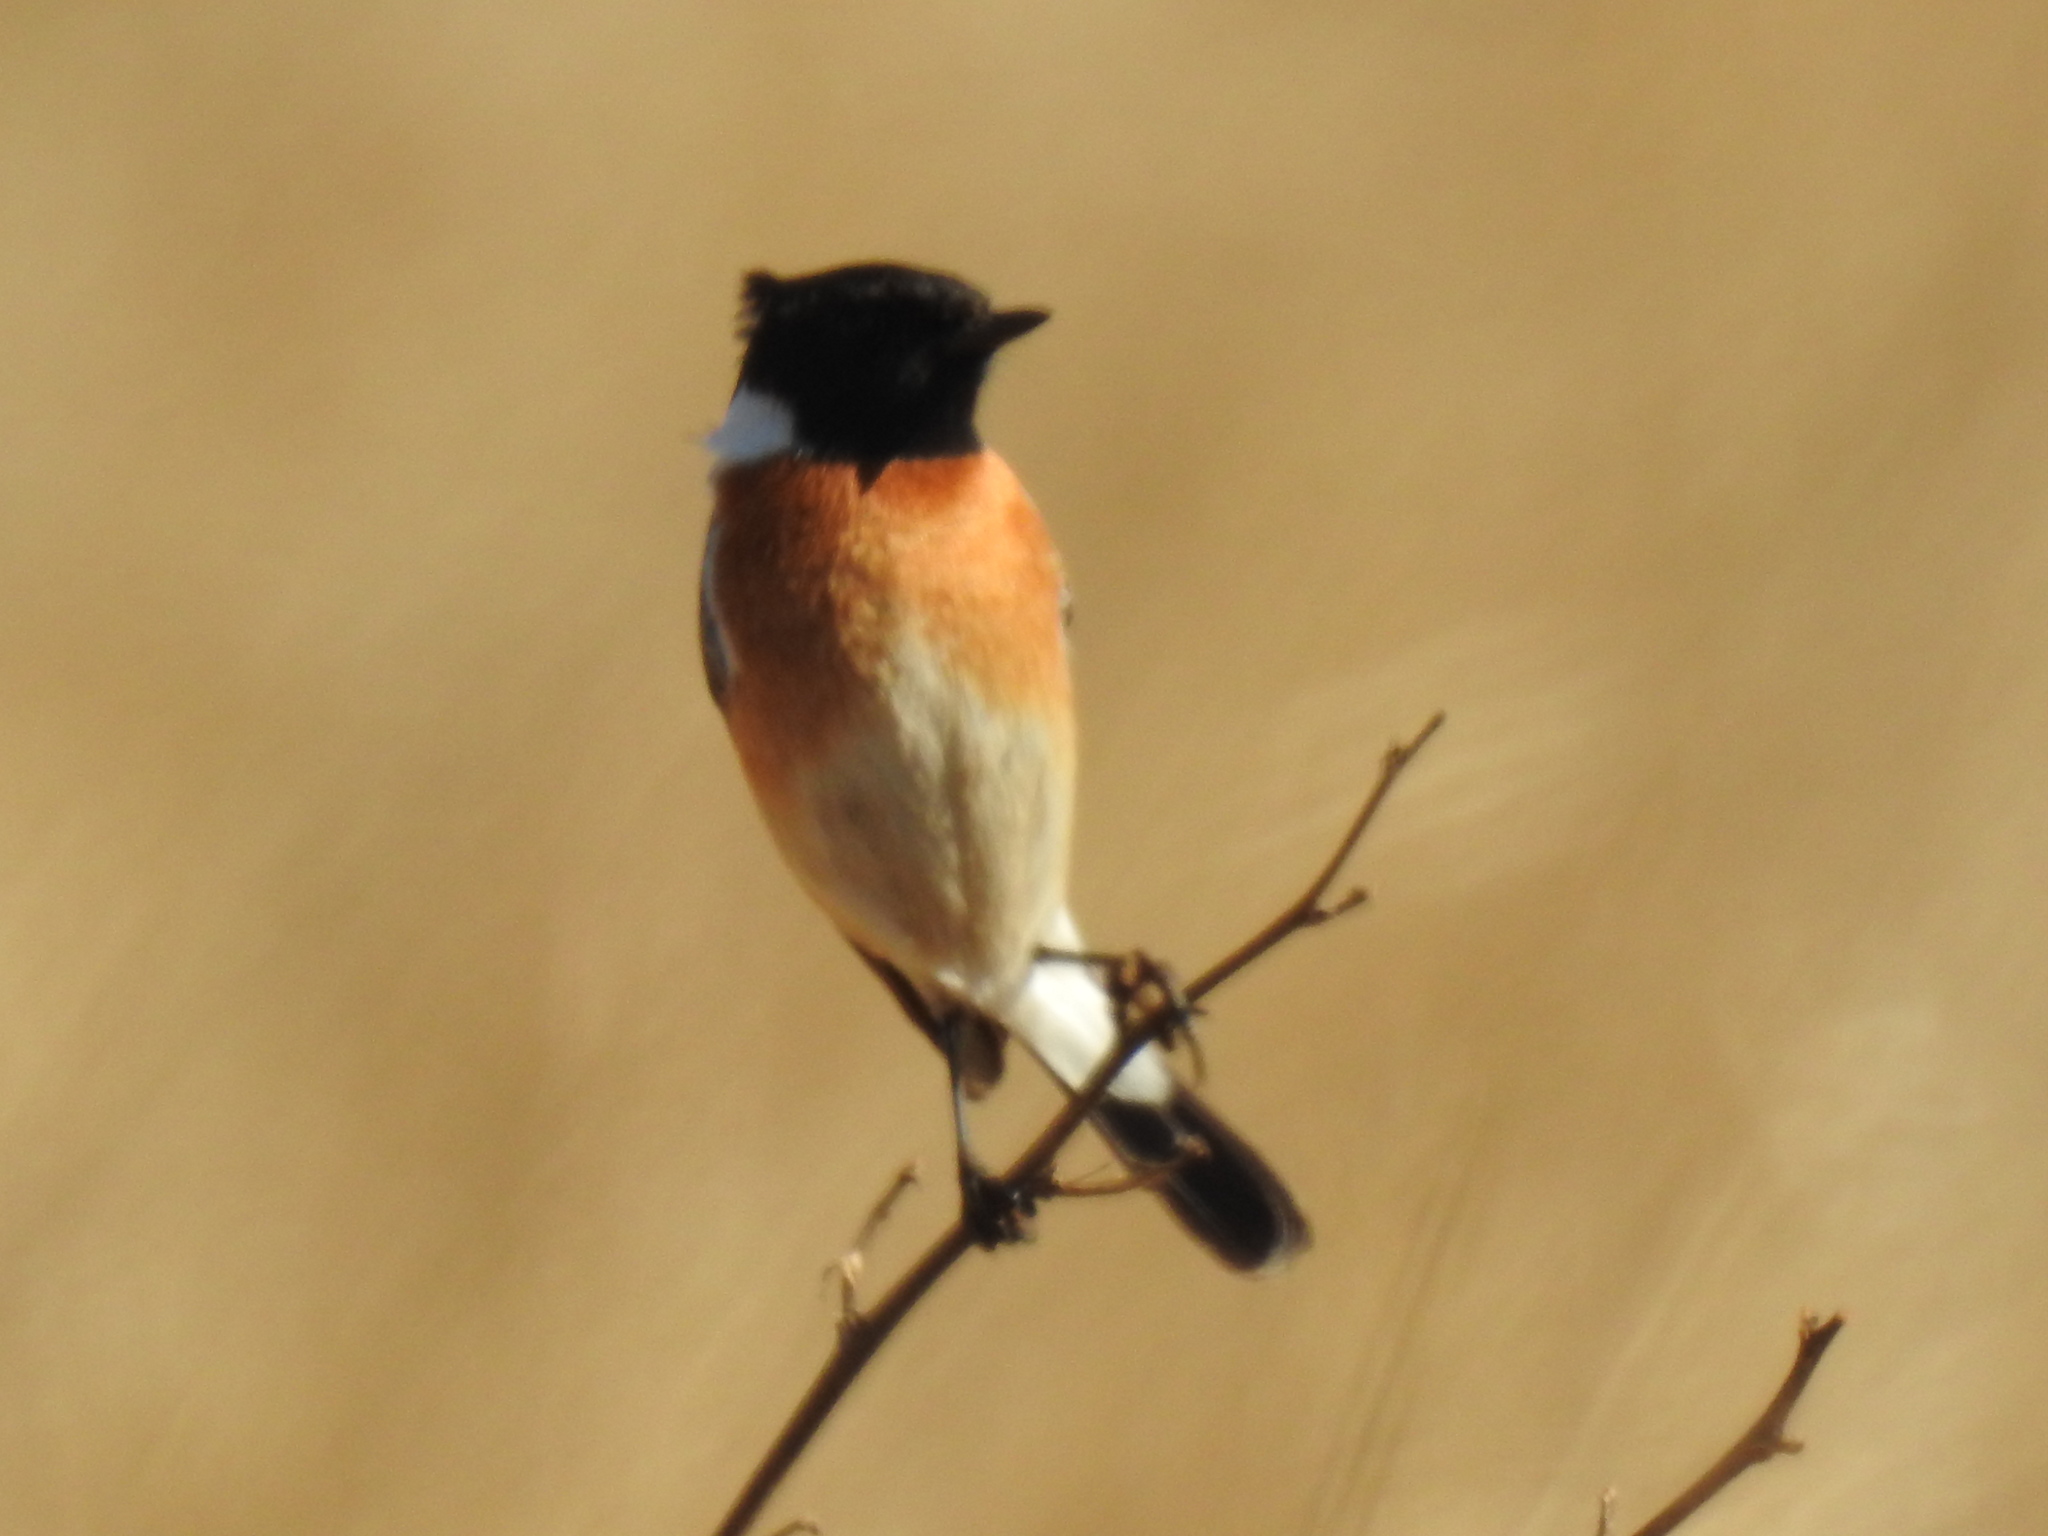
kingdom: Animalia
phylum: Chordata
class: Aves
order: Passeriformes
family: Muscicapidae
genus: Saxicola
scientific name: Saxicola torquatus
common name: African stonechat
